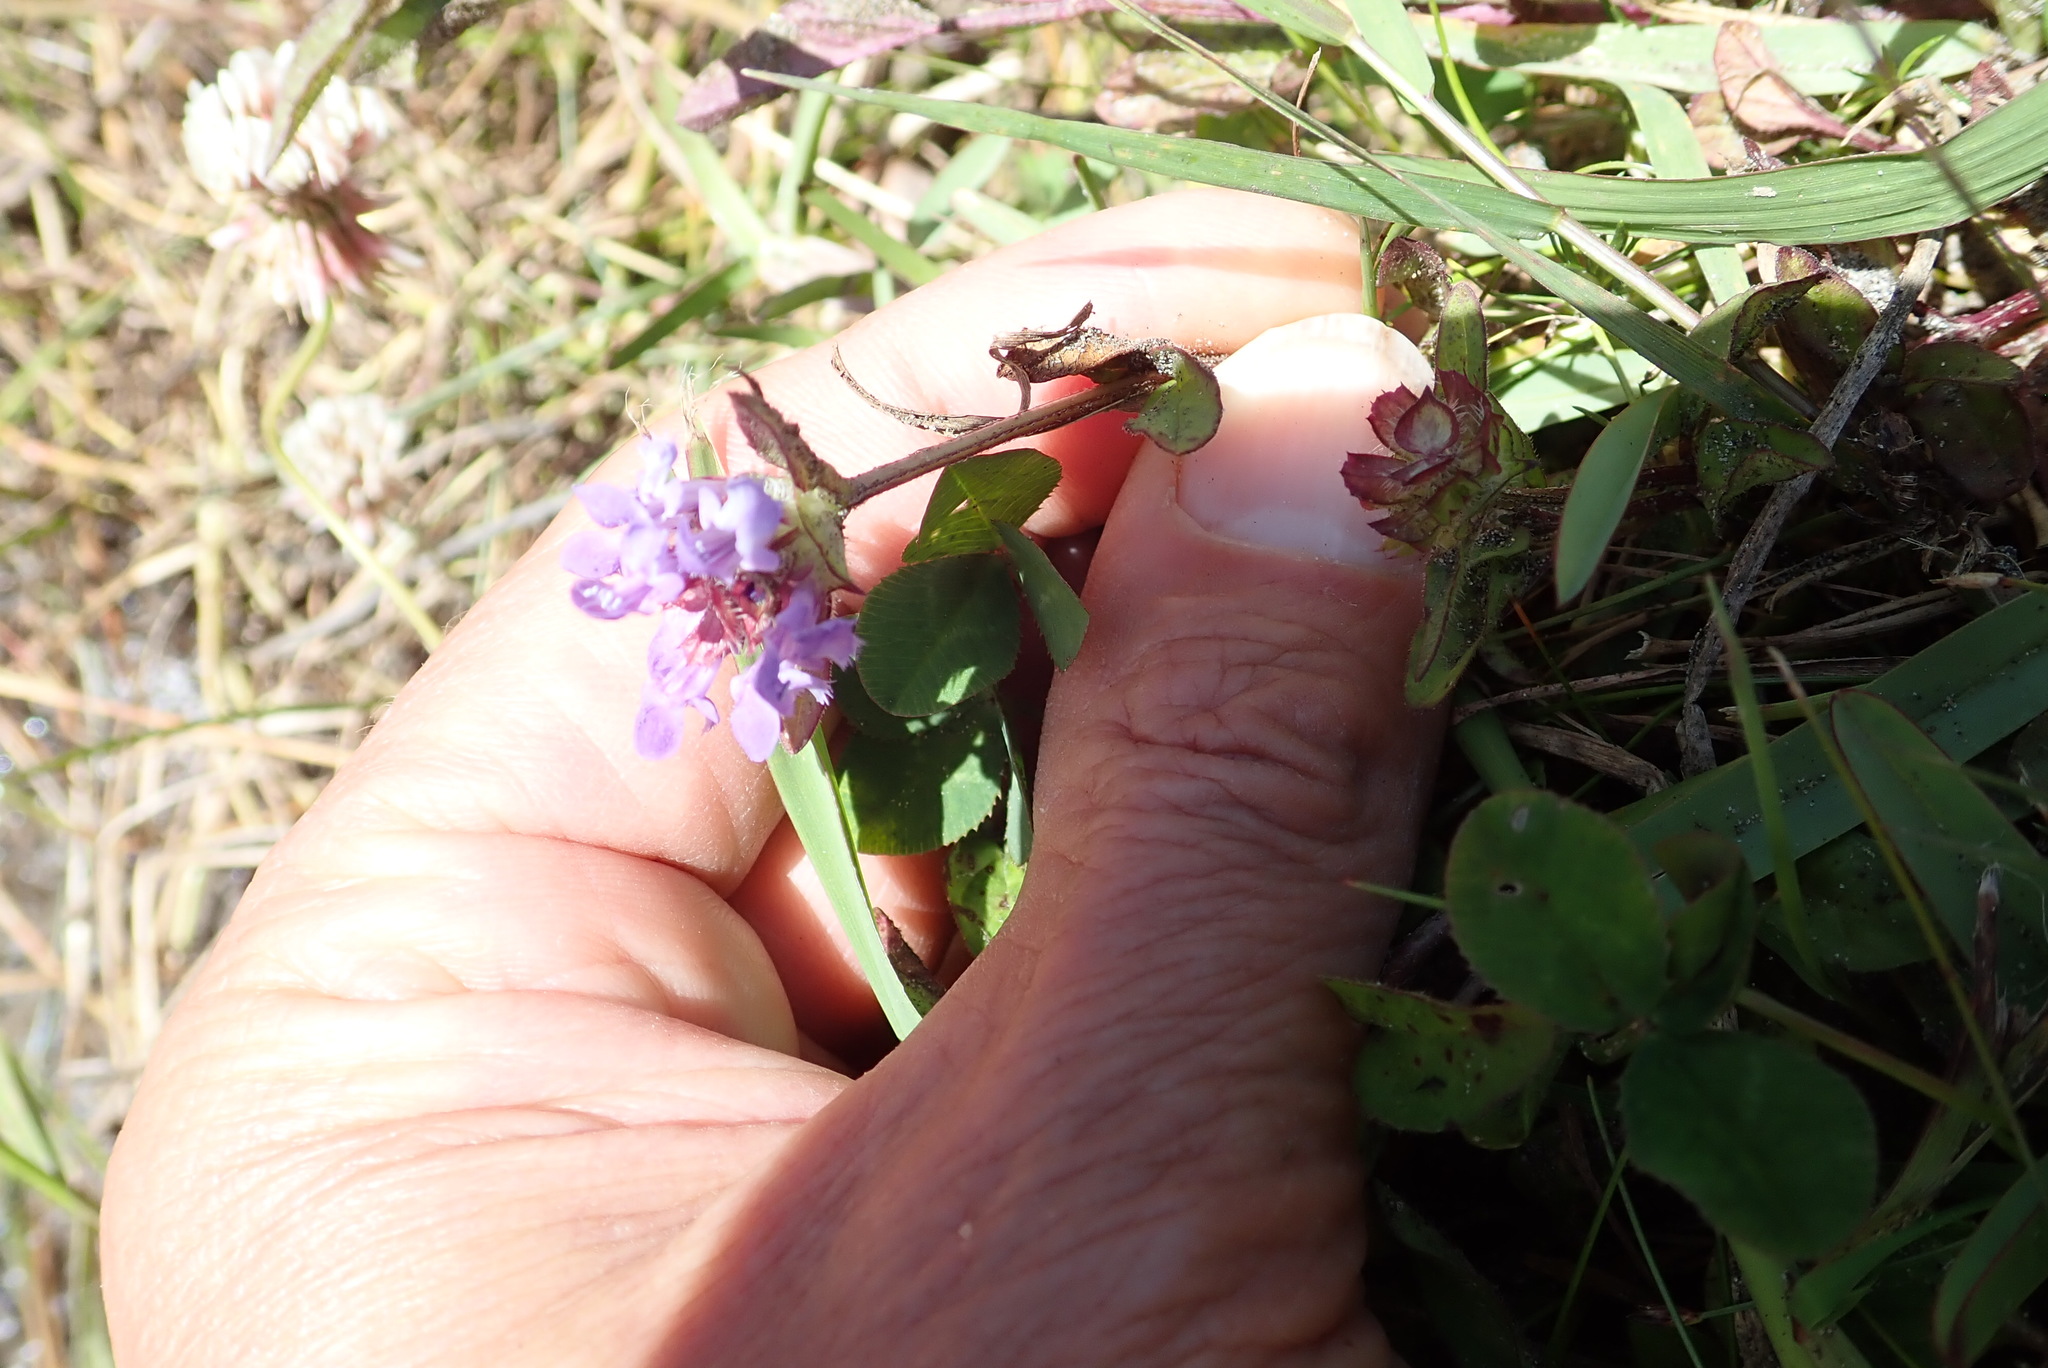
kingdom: Plantae
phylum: Tracheophyta
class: Magnoliopsida
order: Lamiales
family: Lamiaceae
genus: Prunella
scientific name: Prunella vulgaris
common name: Heal-all
